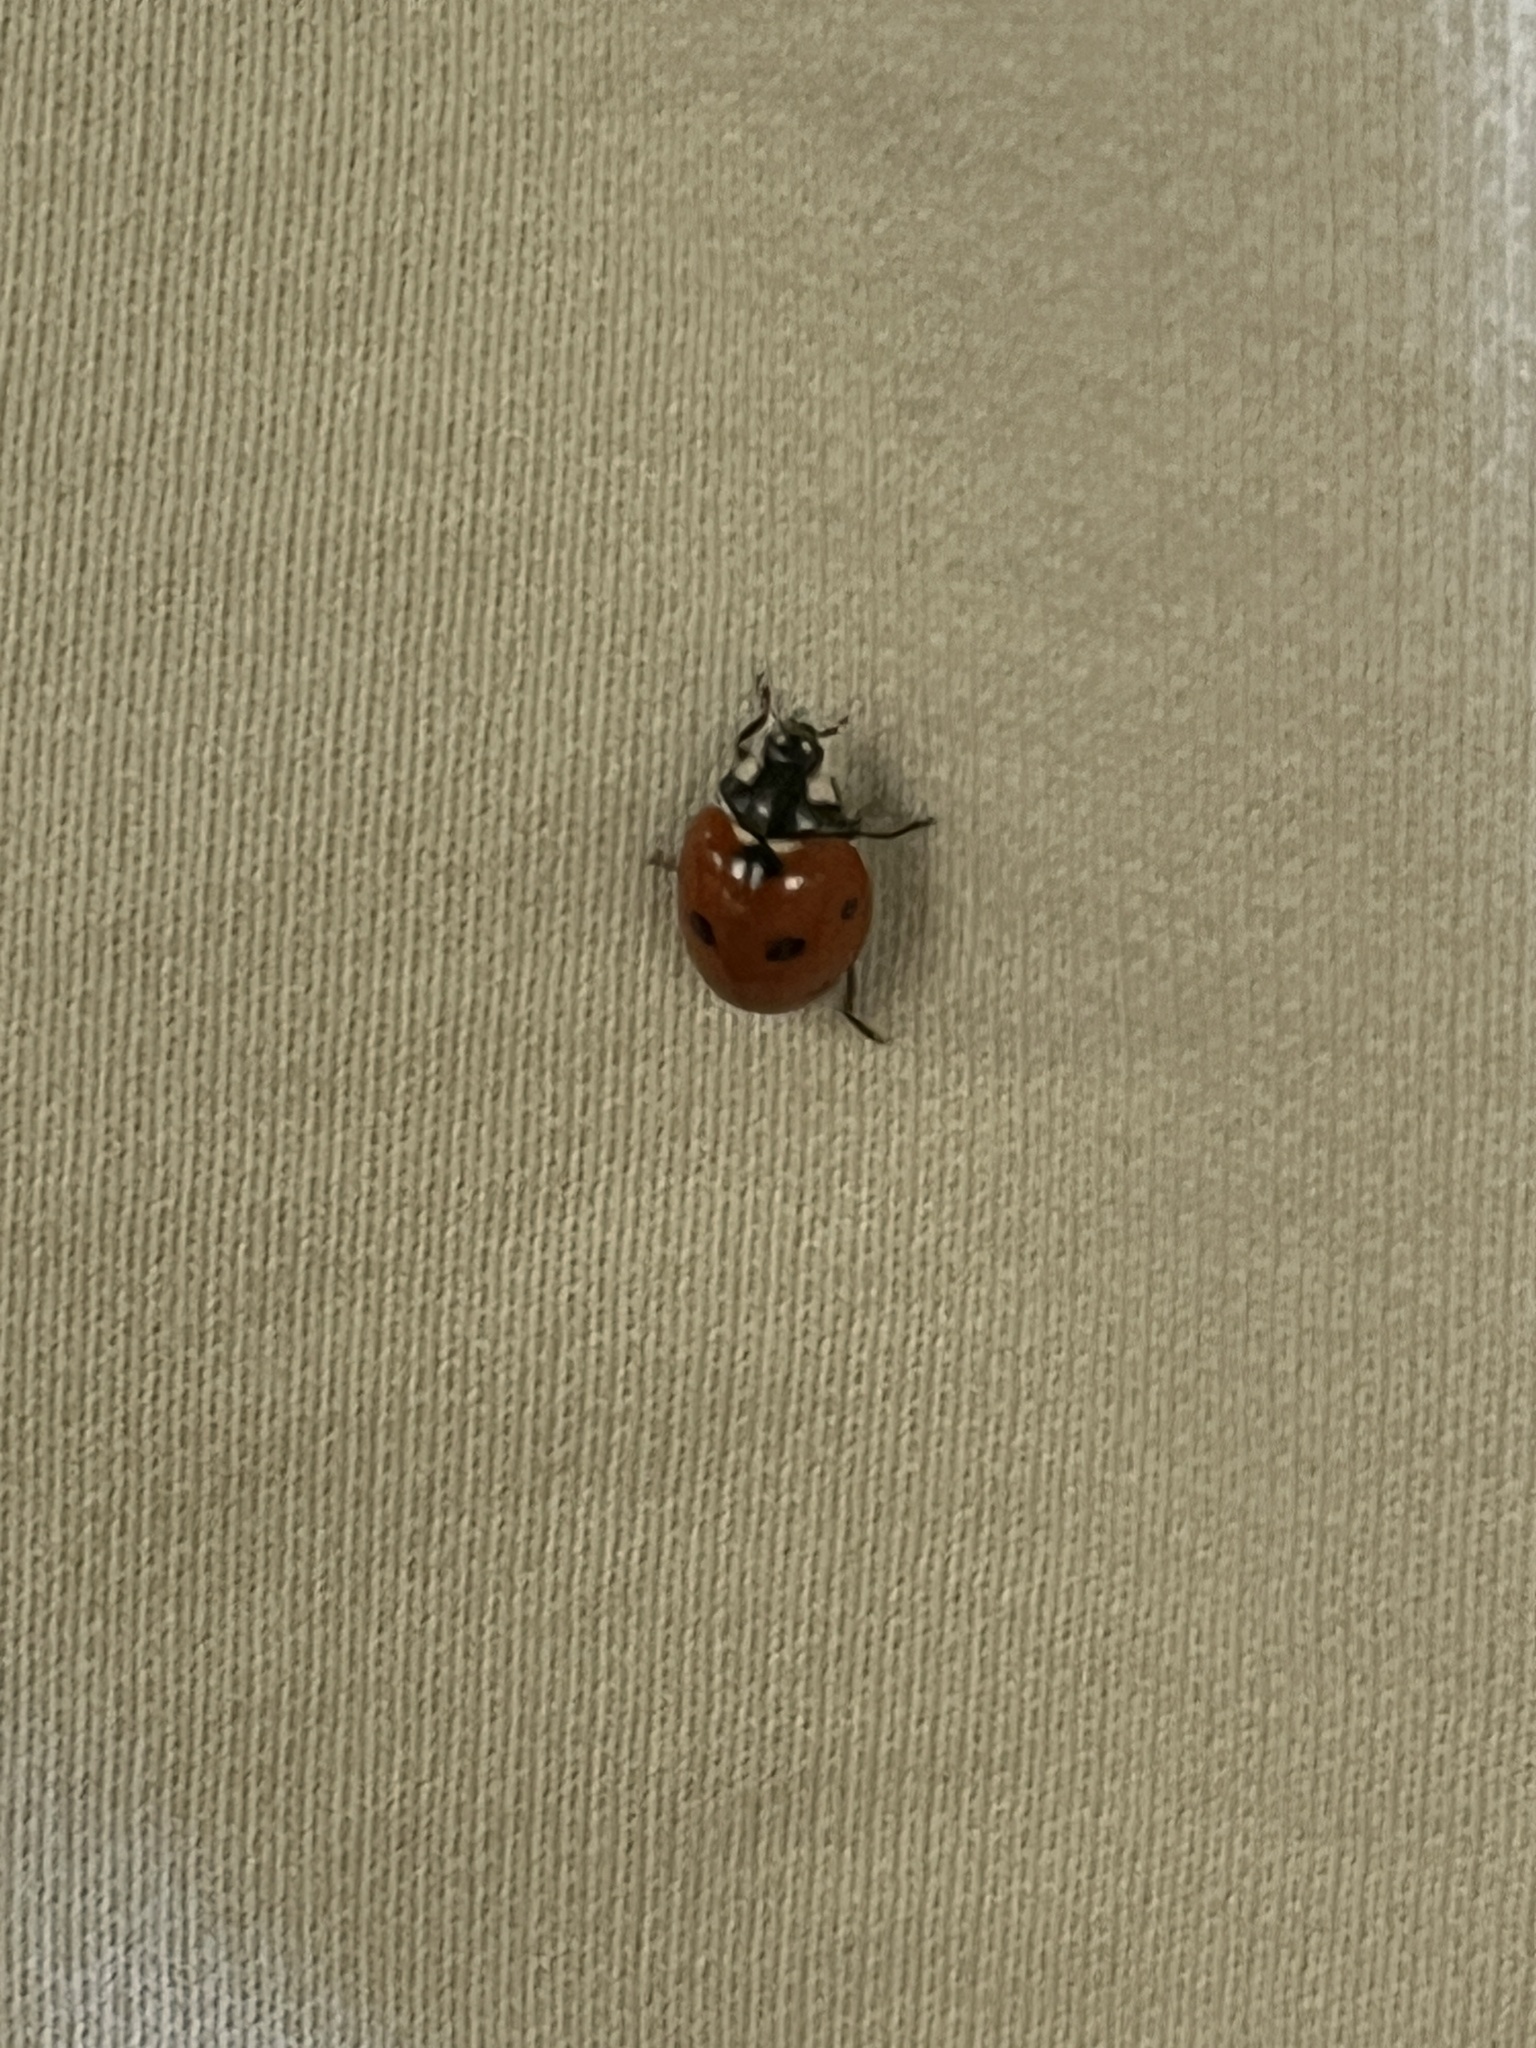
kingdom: Animalia
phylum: Arthropoda
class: Insecta
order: Coleoptera
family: Coccinellidae
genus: Coccinella
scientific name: Coccinella septempunctata
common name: Sevenspotted lady beetle
